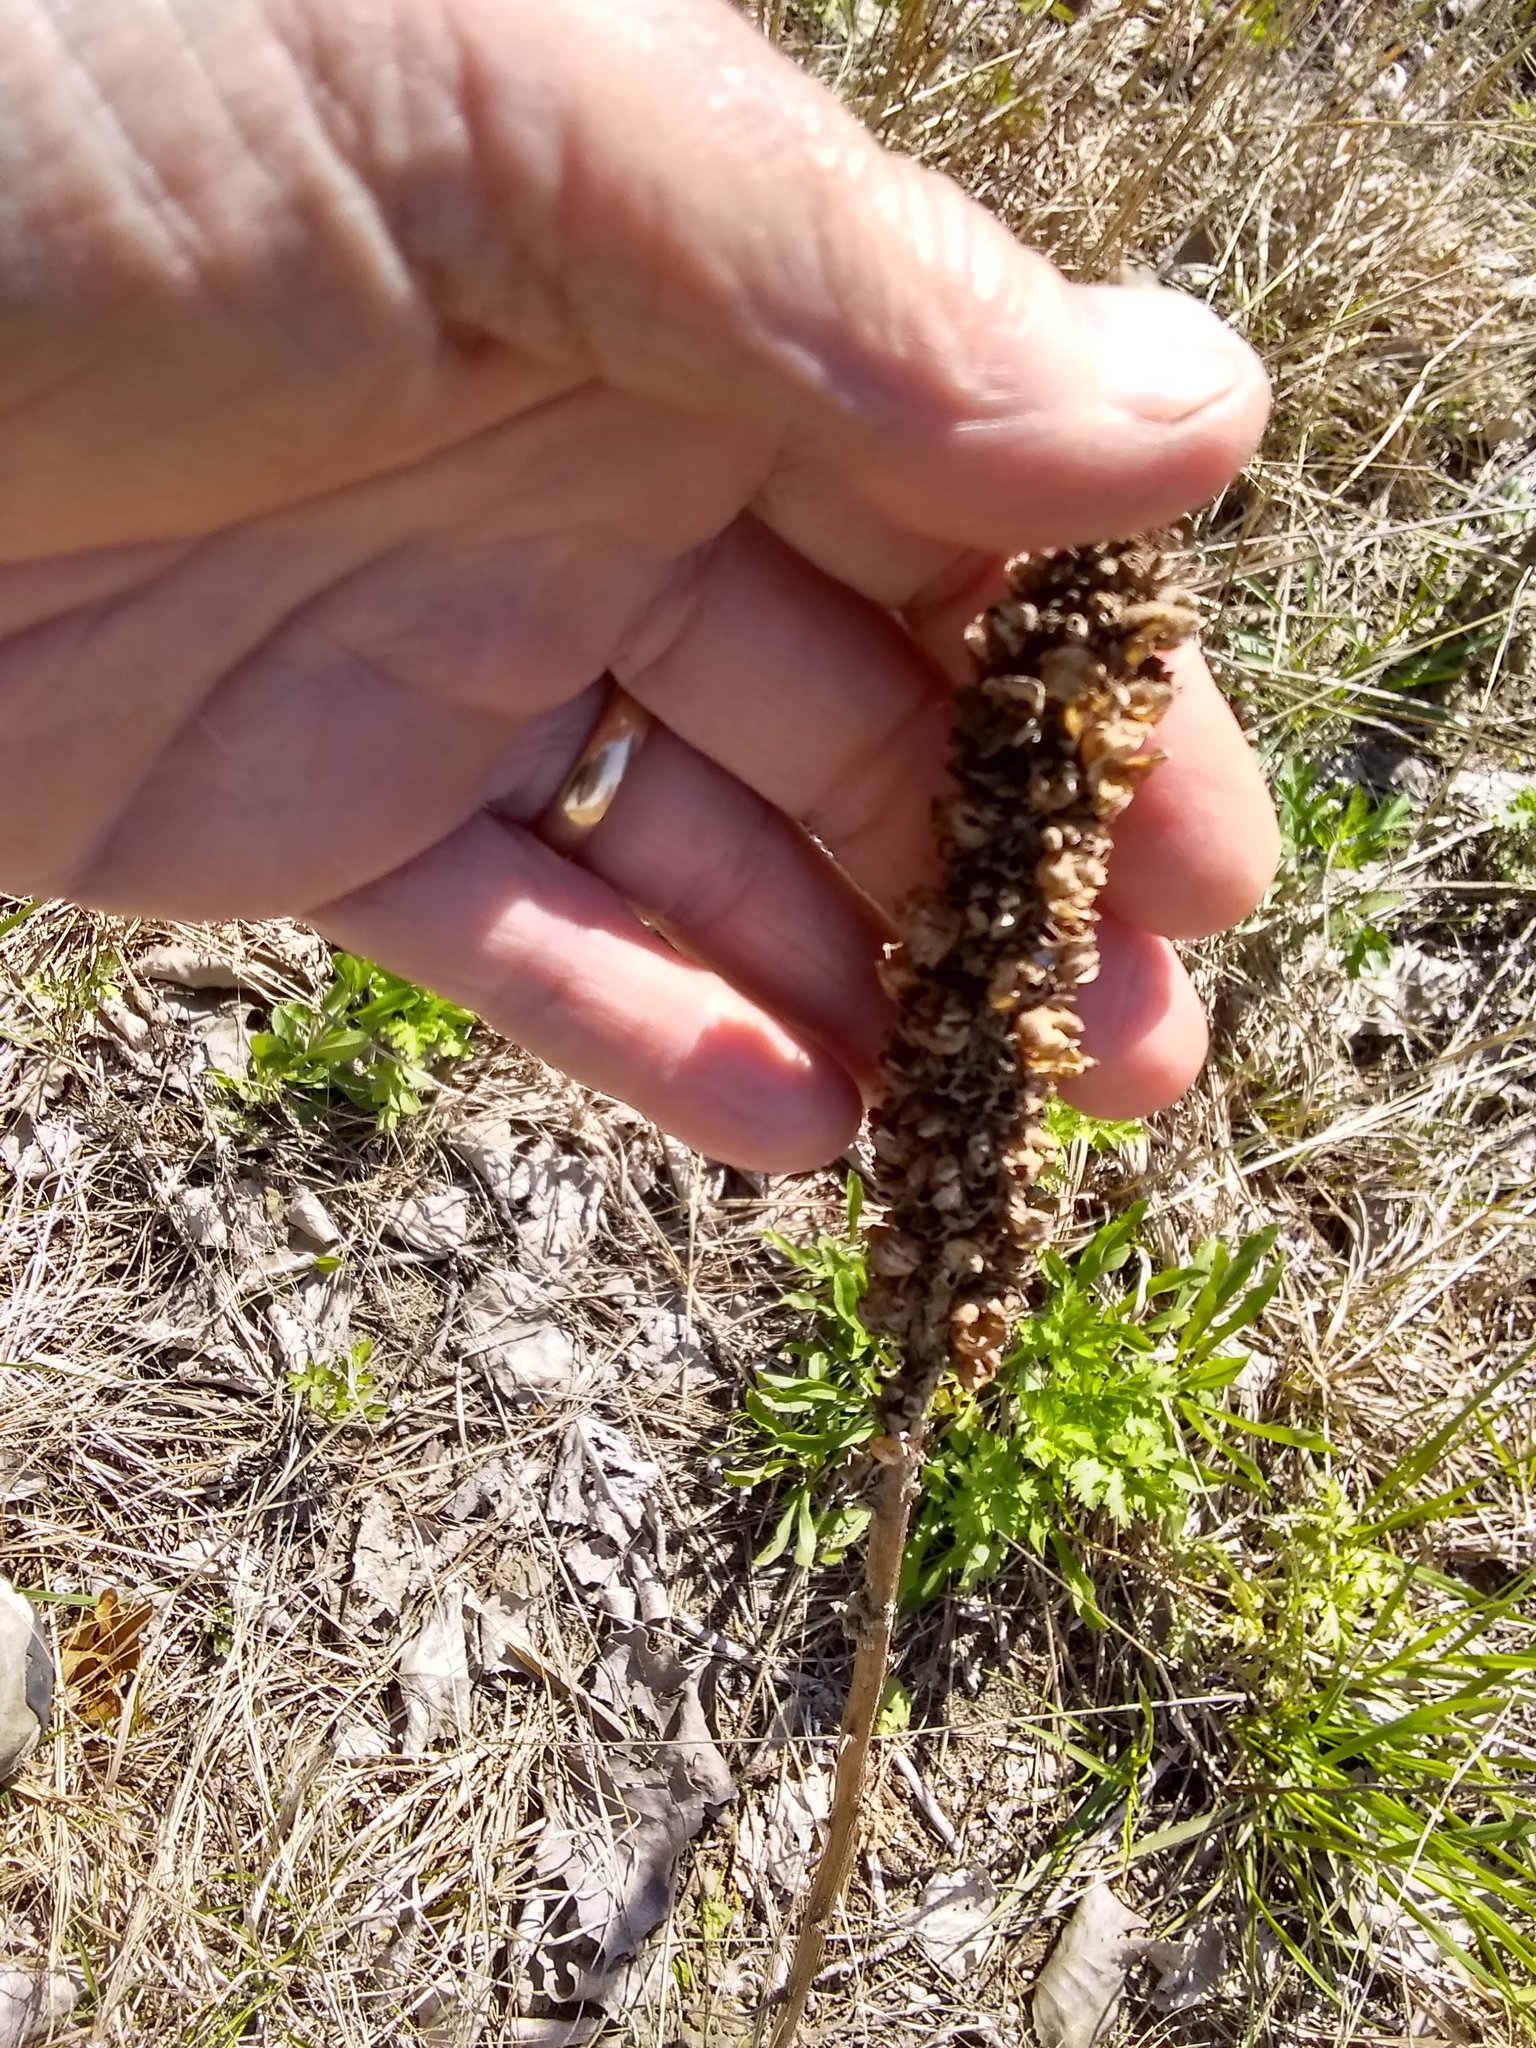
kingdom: Plantae
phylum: Tracheophyta
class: Magnoliopsida
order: Lamiales
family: Scrophulariaceae
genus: Verbascum
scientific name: Verbascum thapsus
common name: Common mullein
